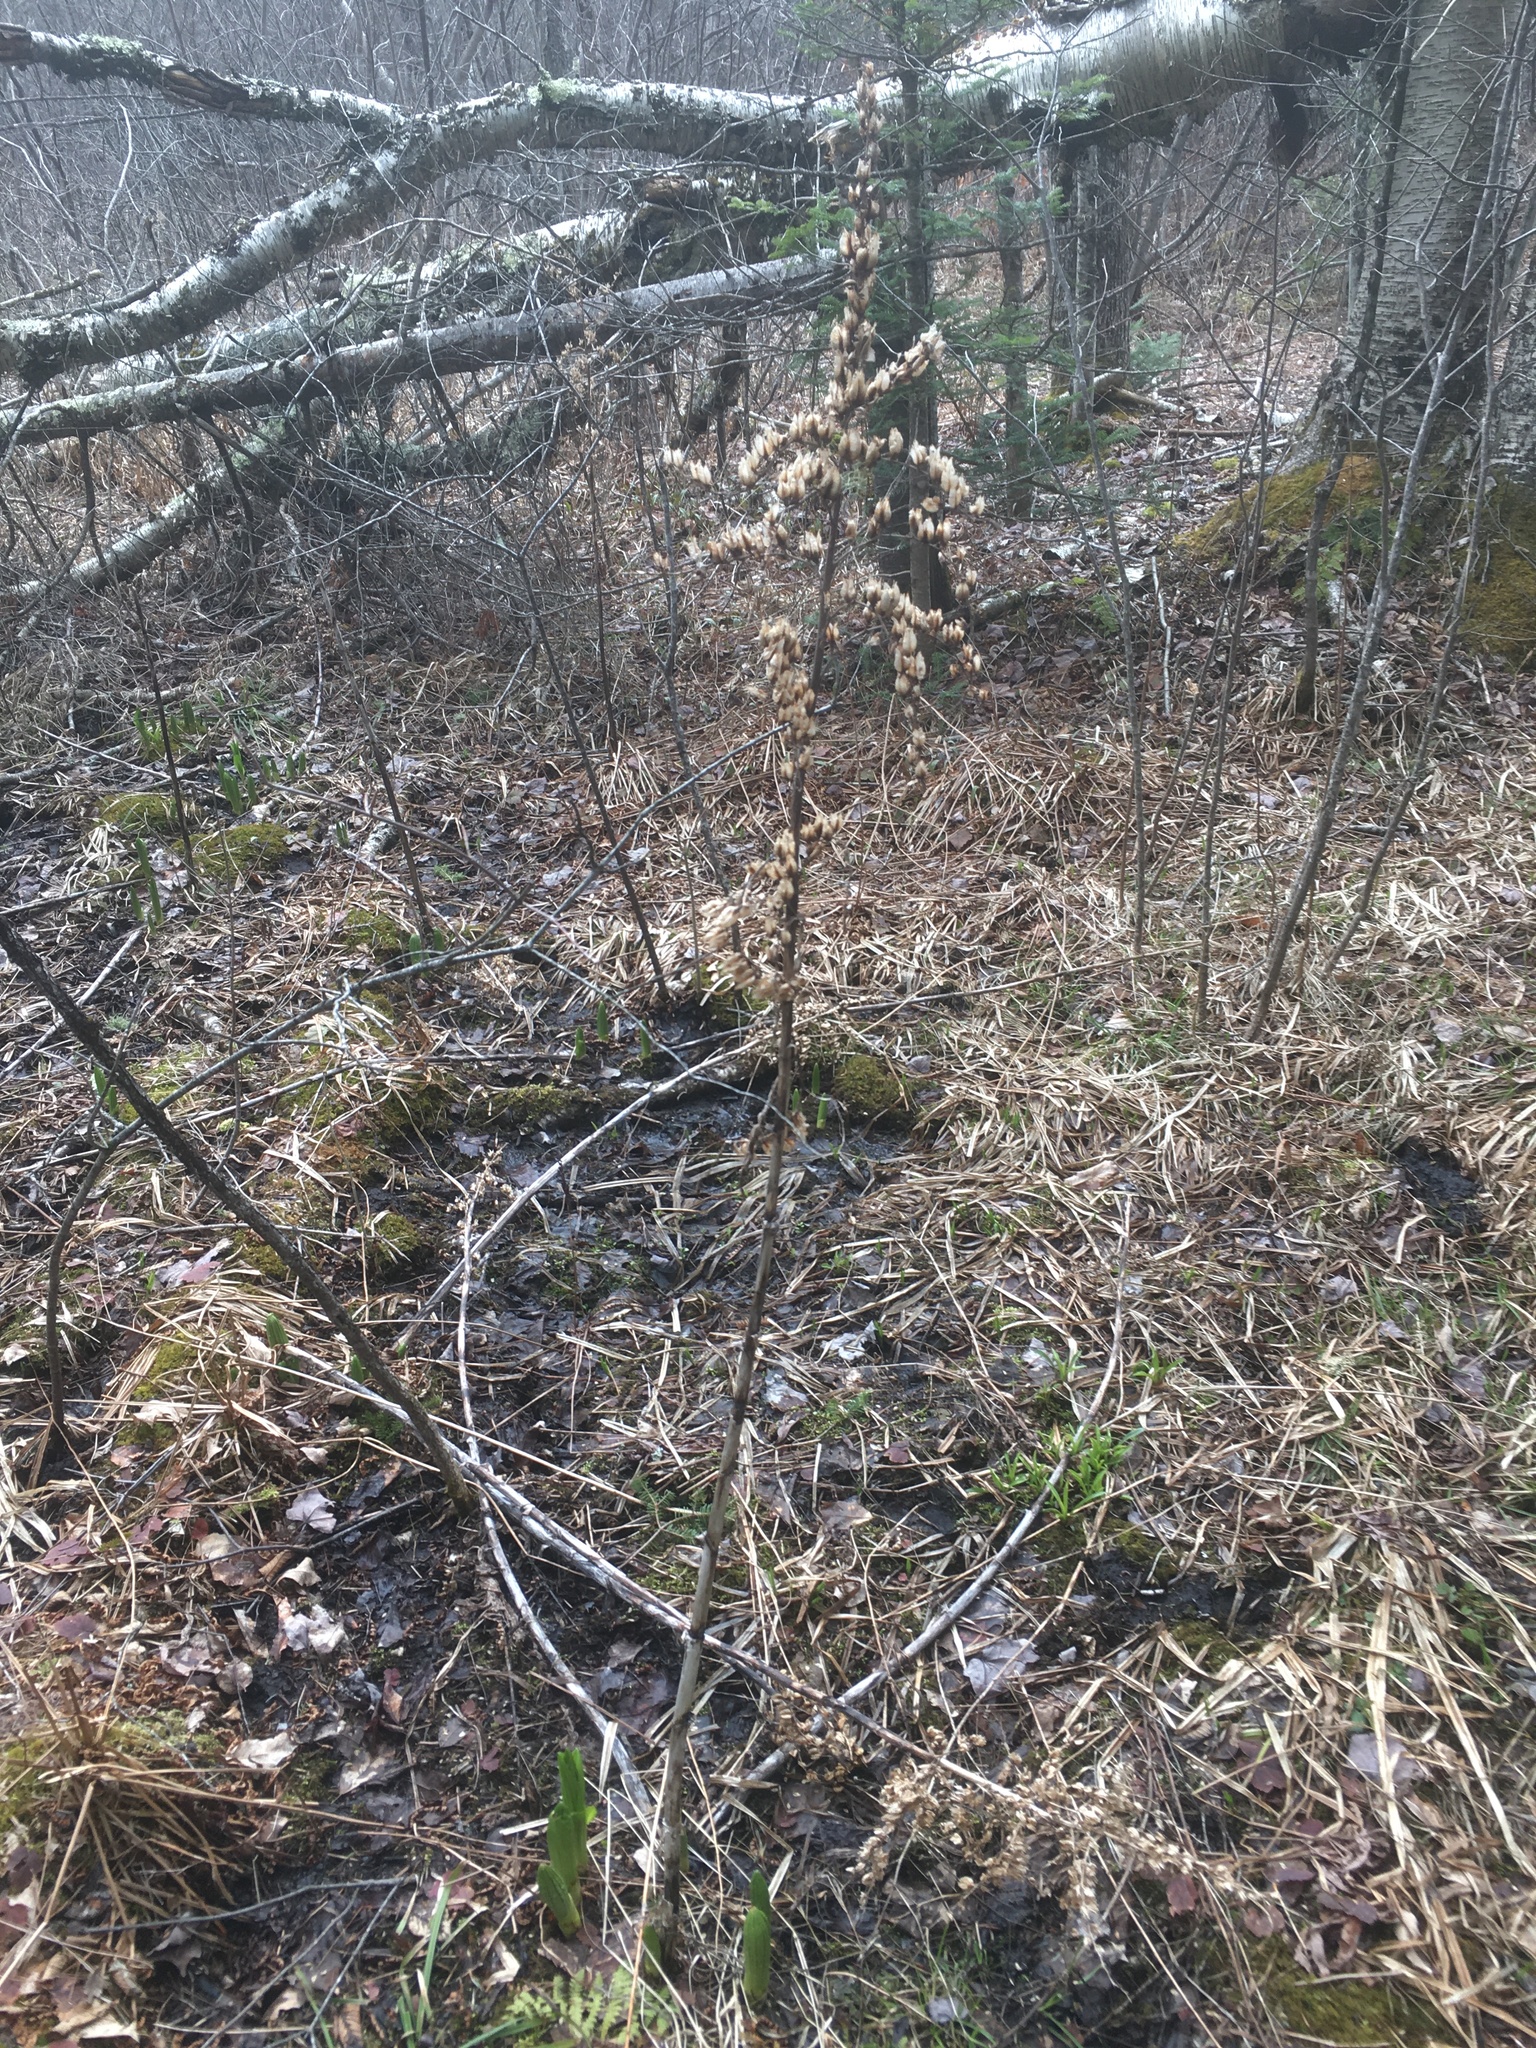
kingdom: Plantae
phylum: Tracheophyta
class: Liliopsida
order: Liliales
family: Melanthiaceae
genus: Veratrum
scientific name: Veratrum viride
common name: American false hellebore
